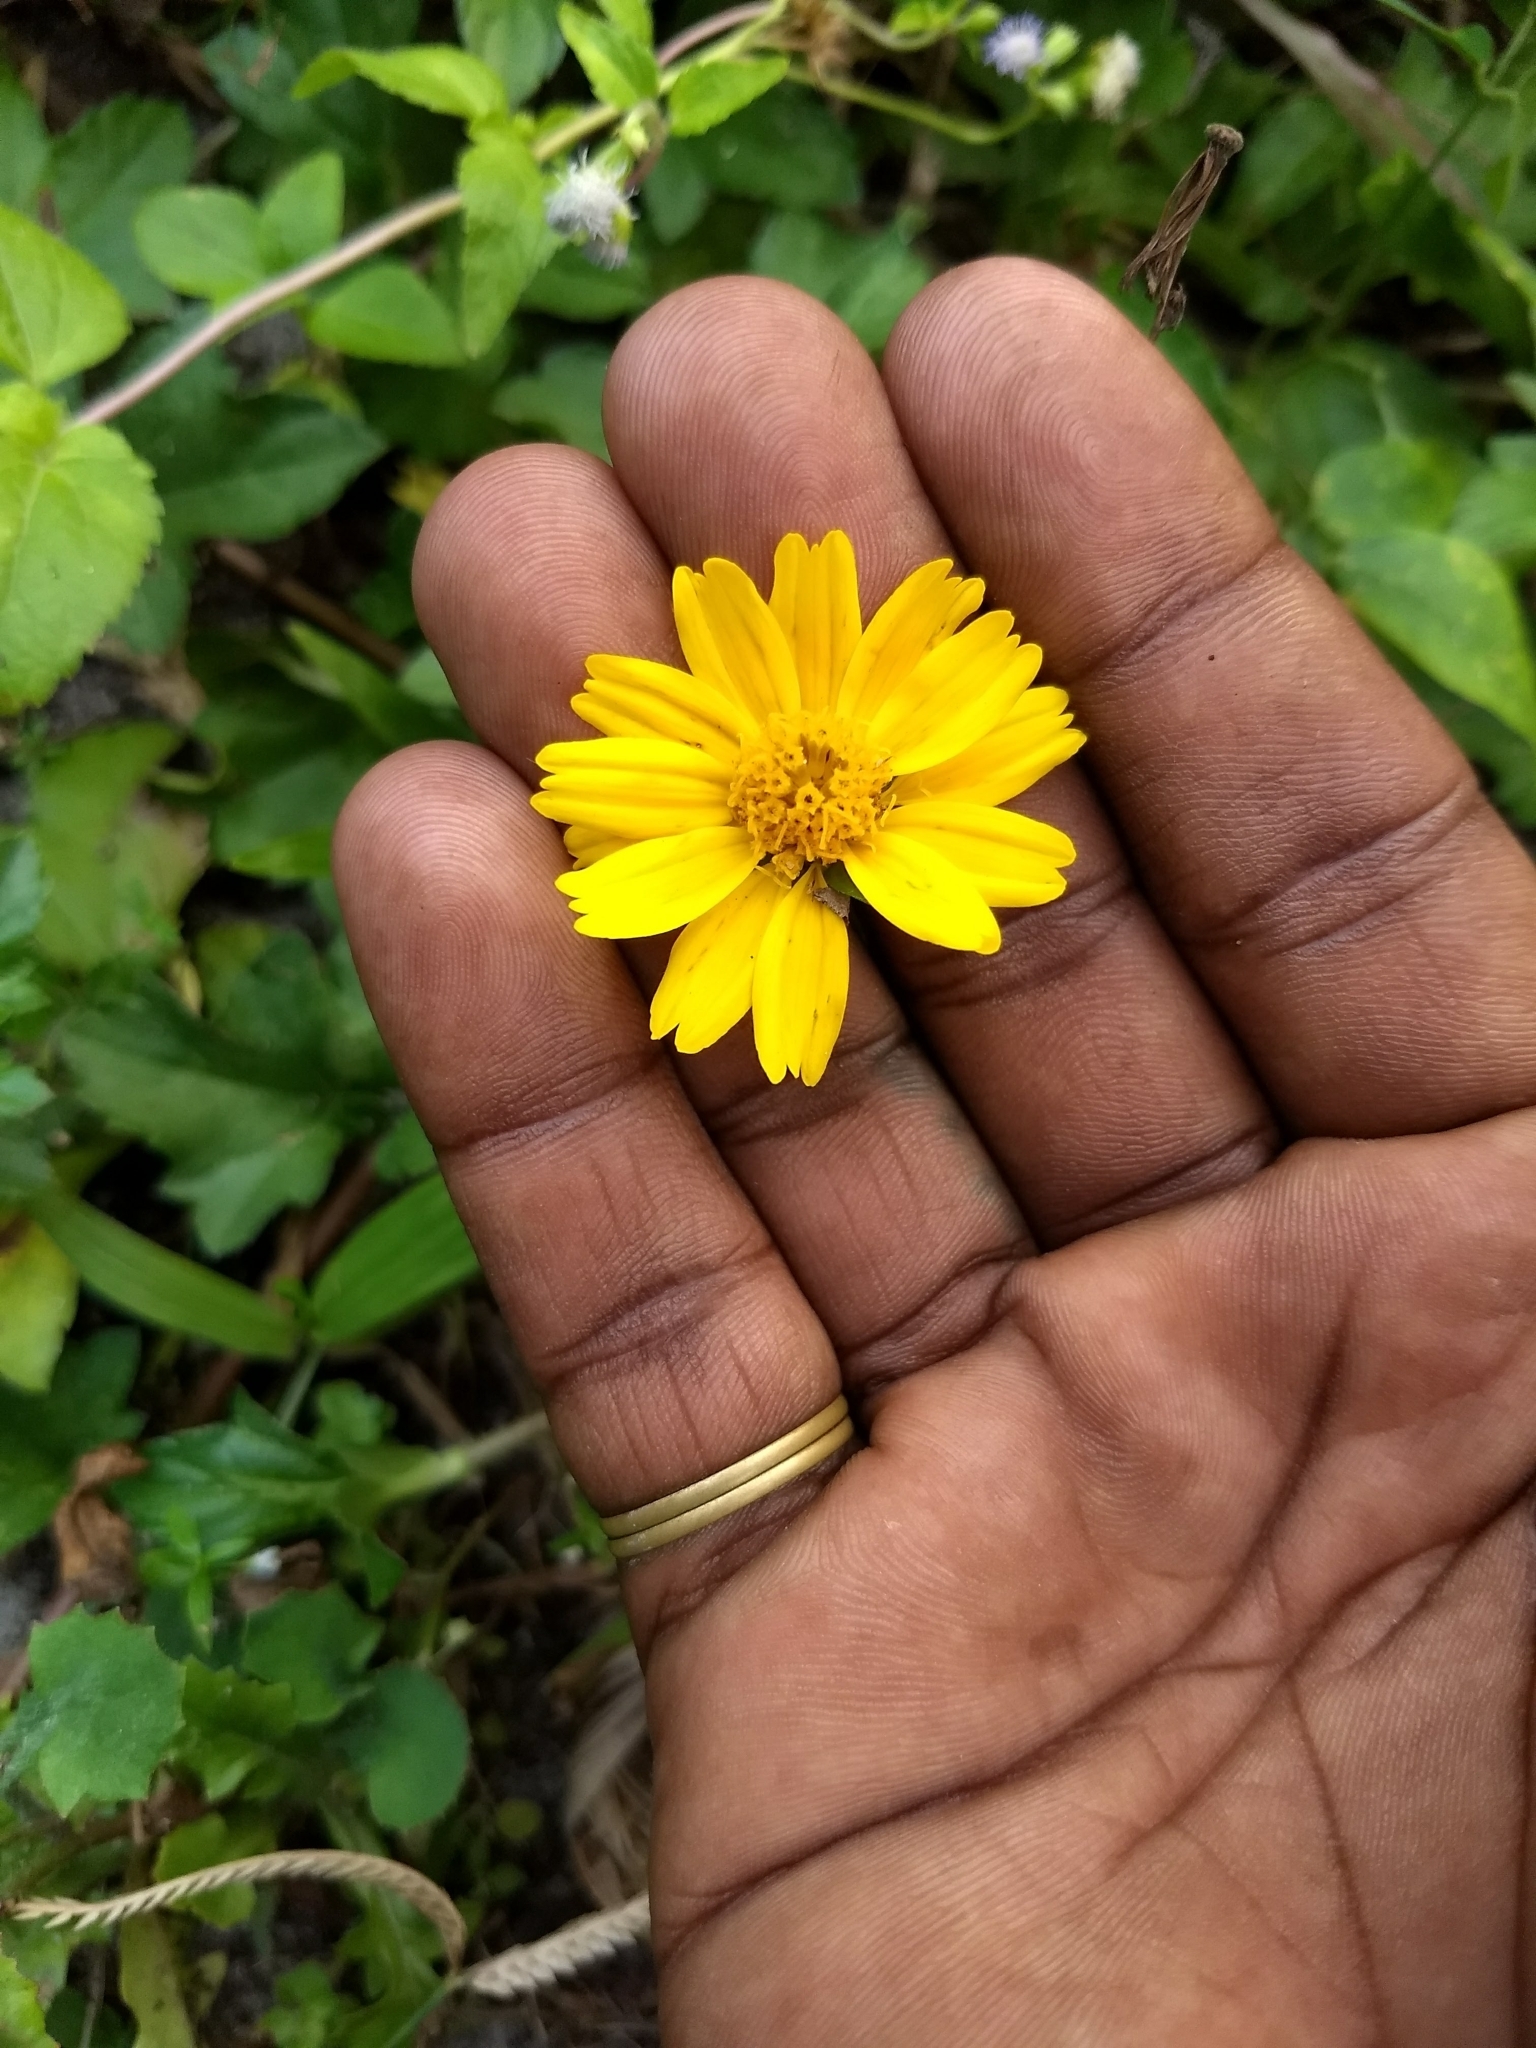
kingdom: Plantae
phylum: Tracheophyta
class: Magnoliopsida
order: Asterales
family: Asteraceae
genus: Sphagneticola
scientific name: Sphagneticola trilobata
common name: Bay biscayne creeping-oxeye
